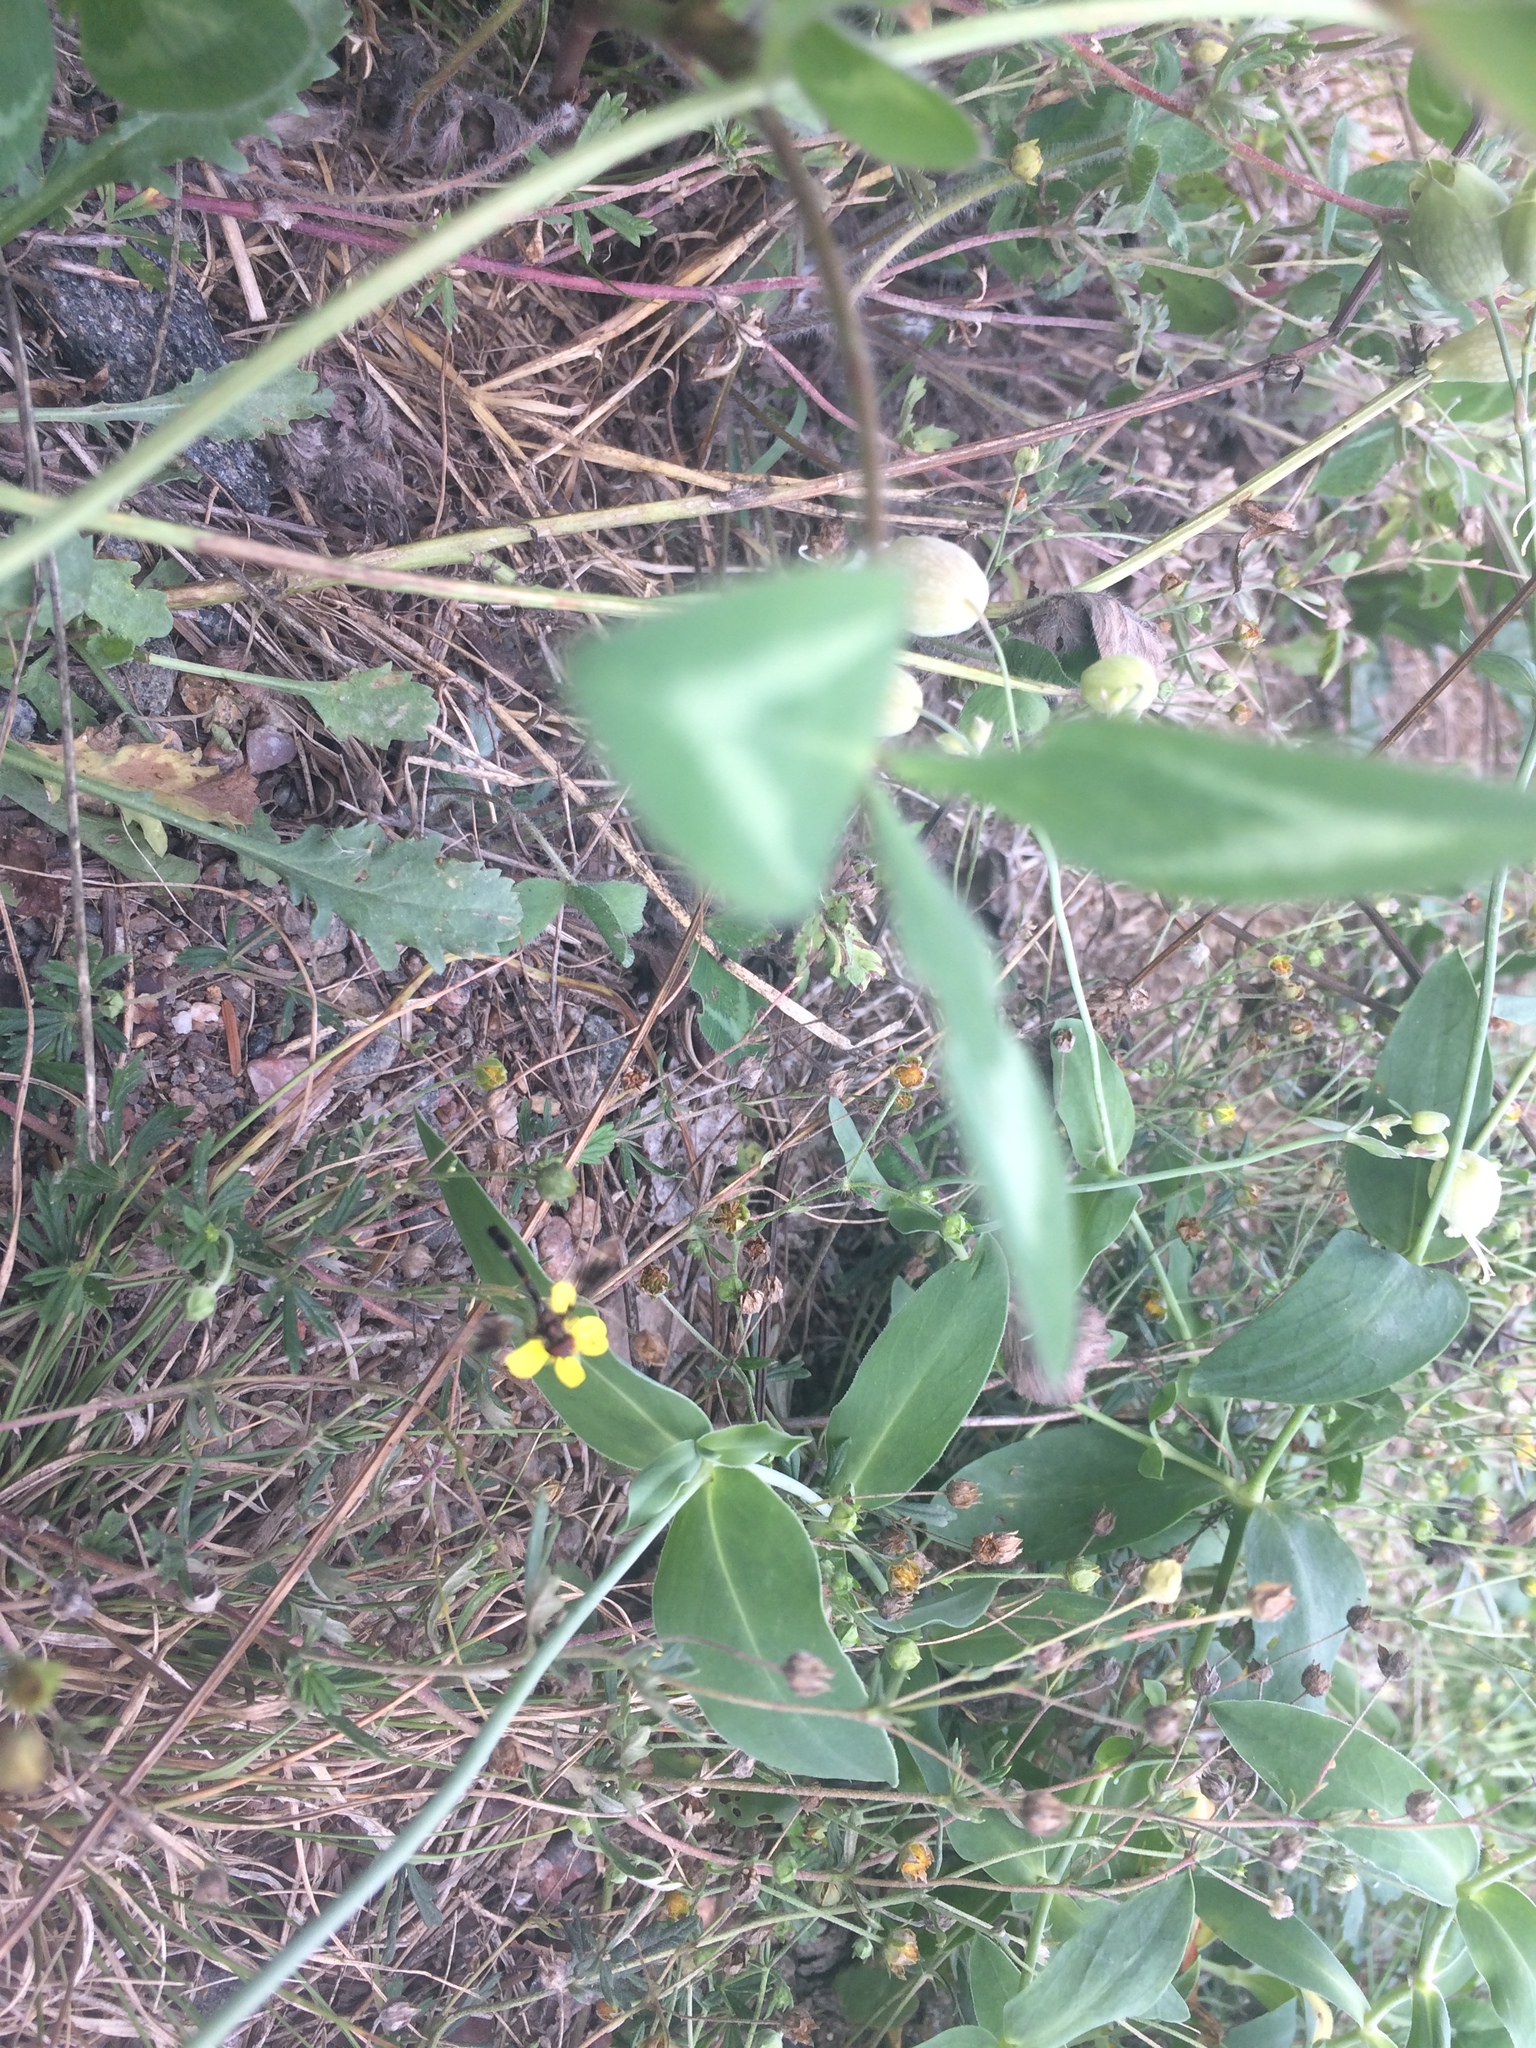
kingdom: Animalia
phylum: Arthropoda
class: Insecta
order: Diptera
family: Syrphidae
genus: Hypocritanus
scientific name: Hypocritanus fascipennis
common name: Eastern band-winged hover fly
